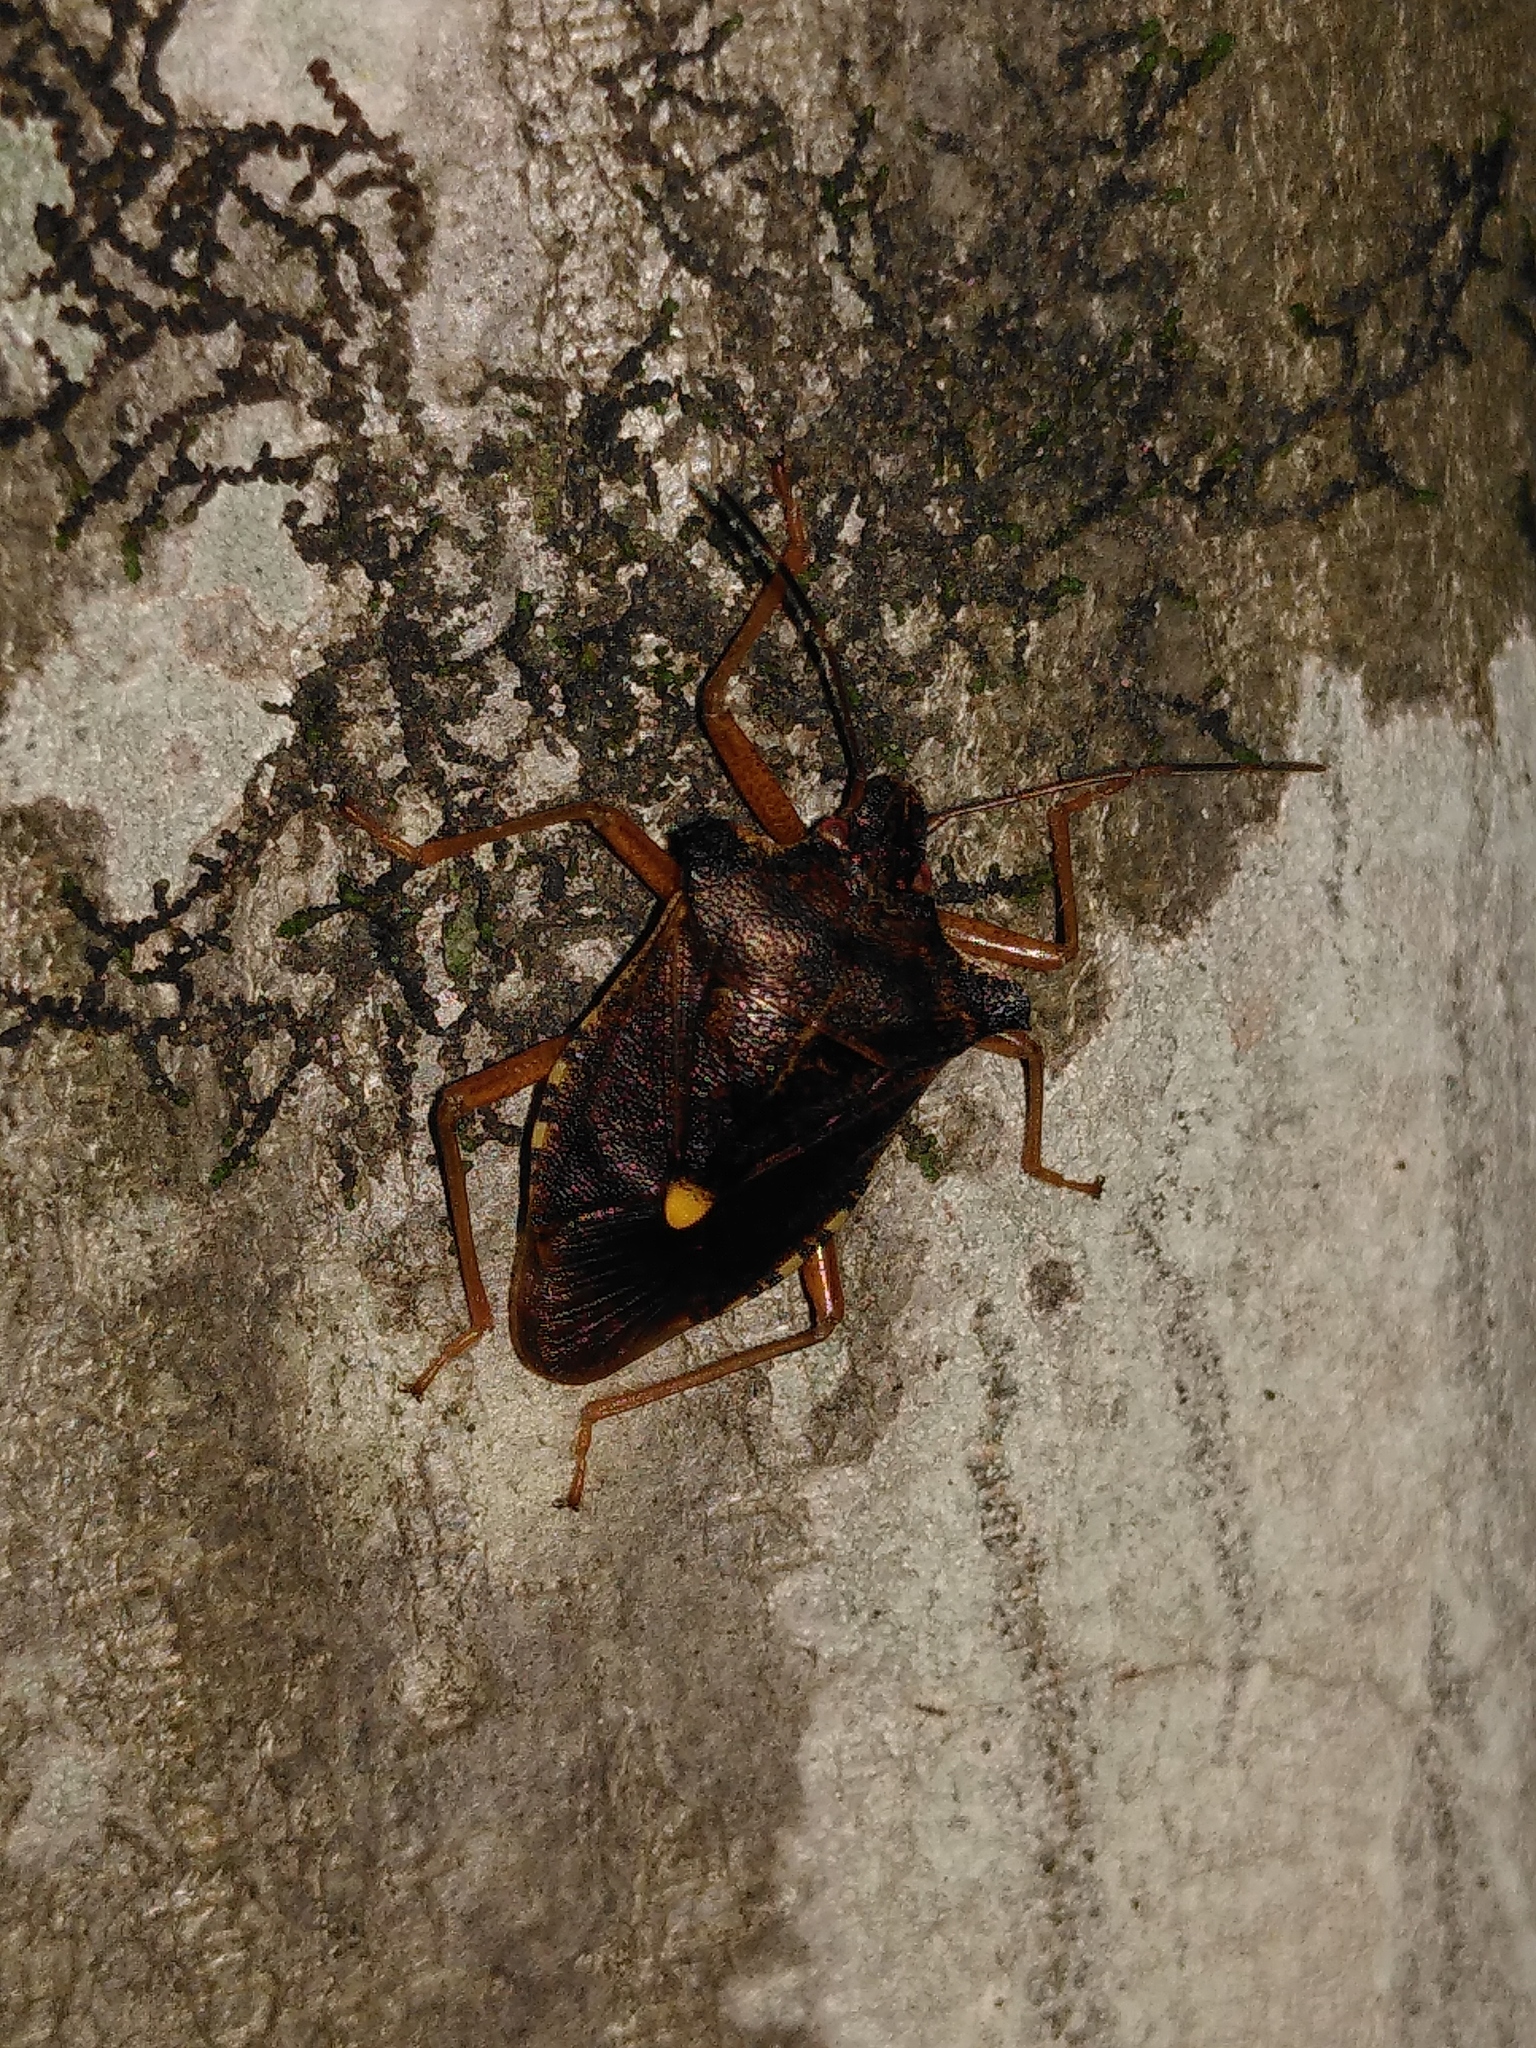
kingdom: Animalia
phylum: Arthropoda
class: Insecta
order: Hemiptera
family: Pentatomidae
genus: Pentatoma
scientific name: Pentatoma rufipes
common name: Forest bug
